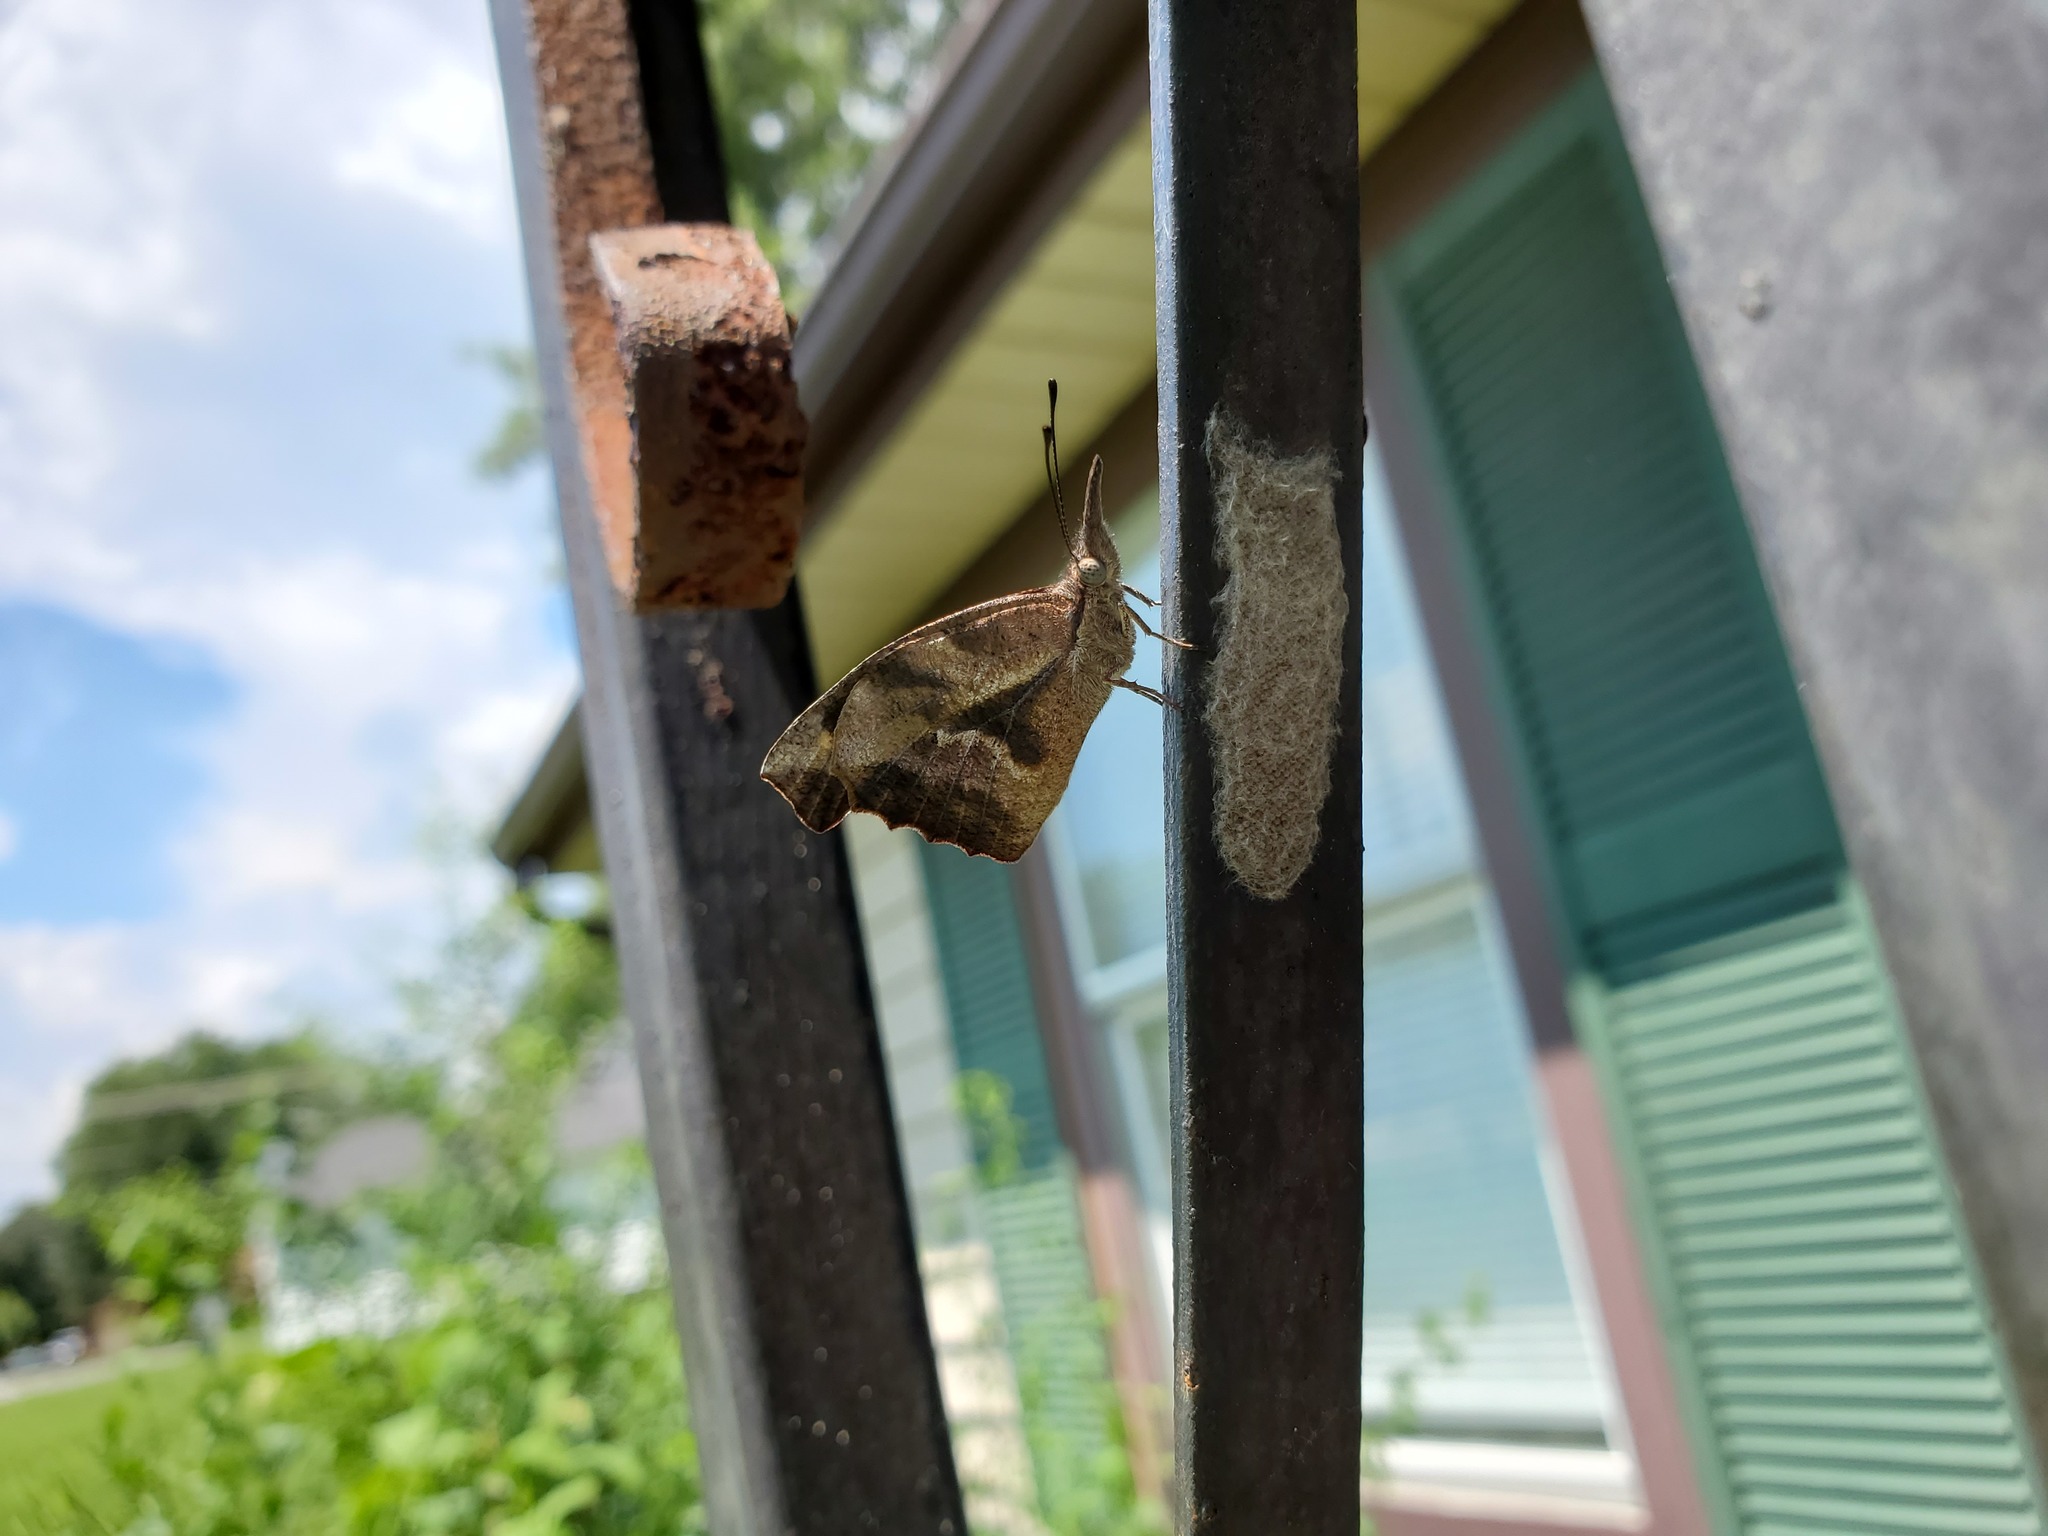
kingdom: Animalia
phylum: Arthropoda
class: Insecta
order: Lepidoptera
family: Nymphalidae
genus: Libytheana
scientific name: Libytheana carinenta
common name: American snout
